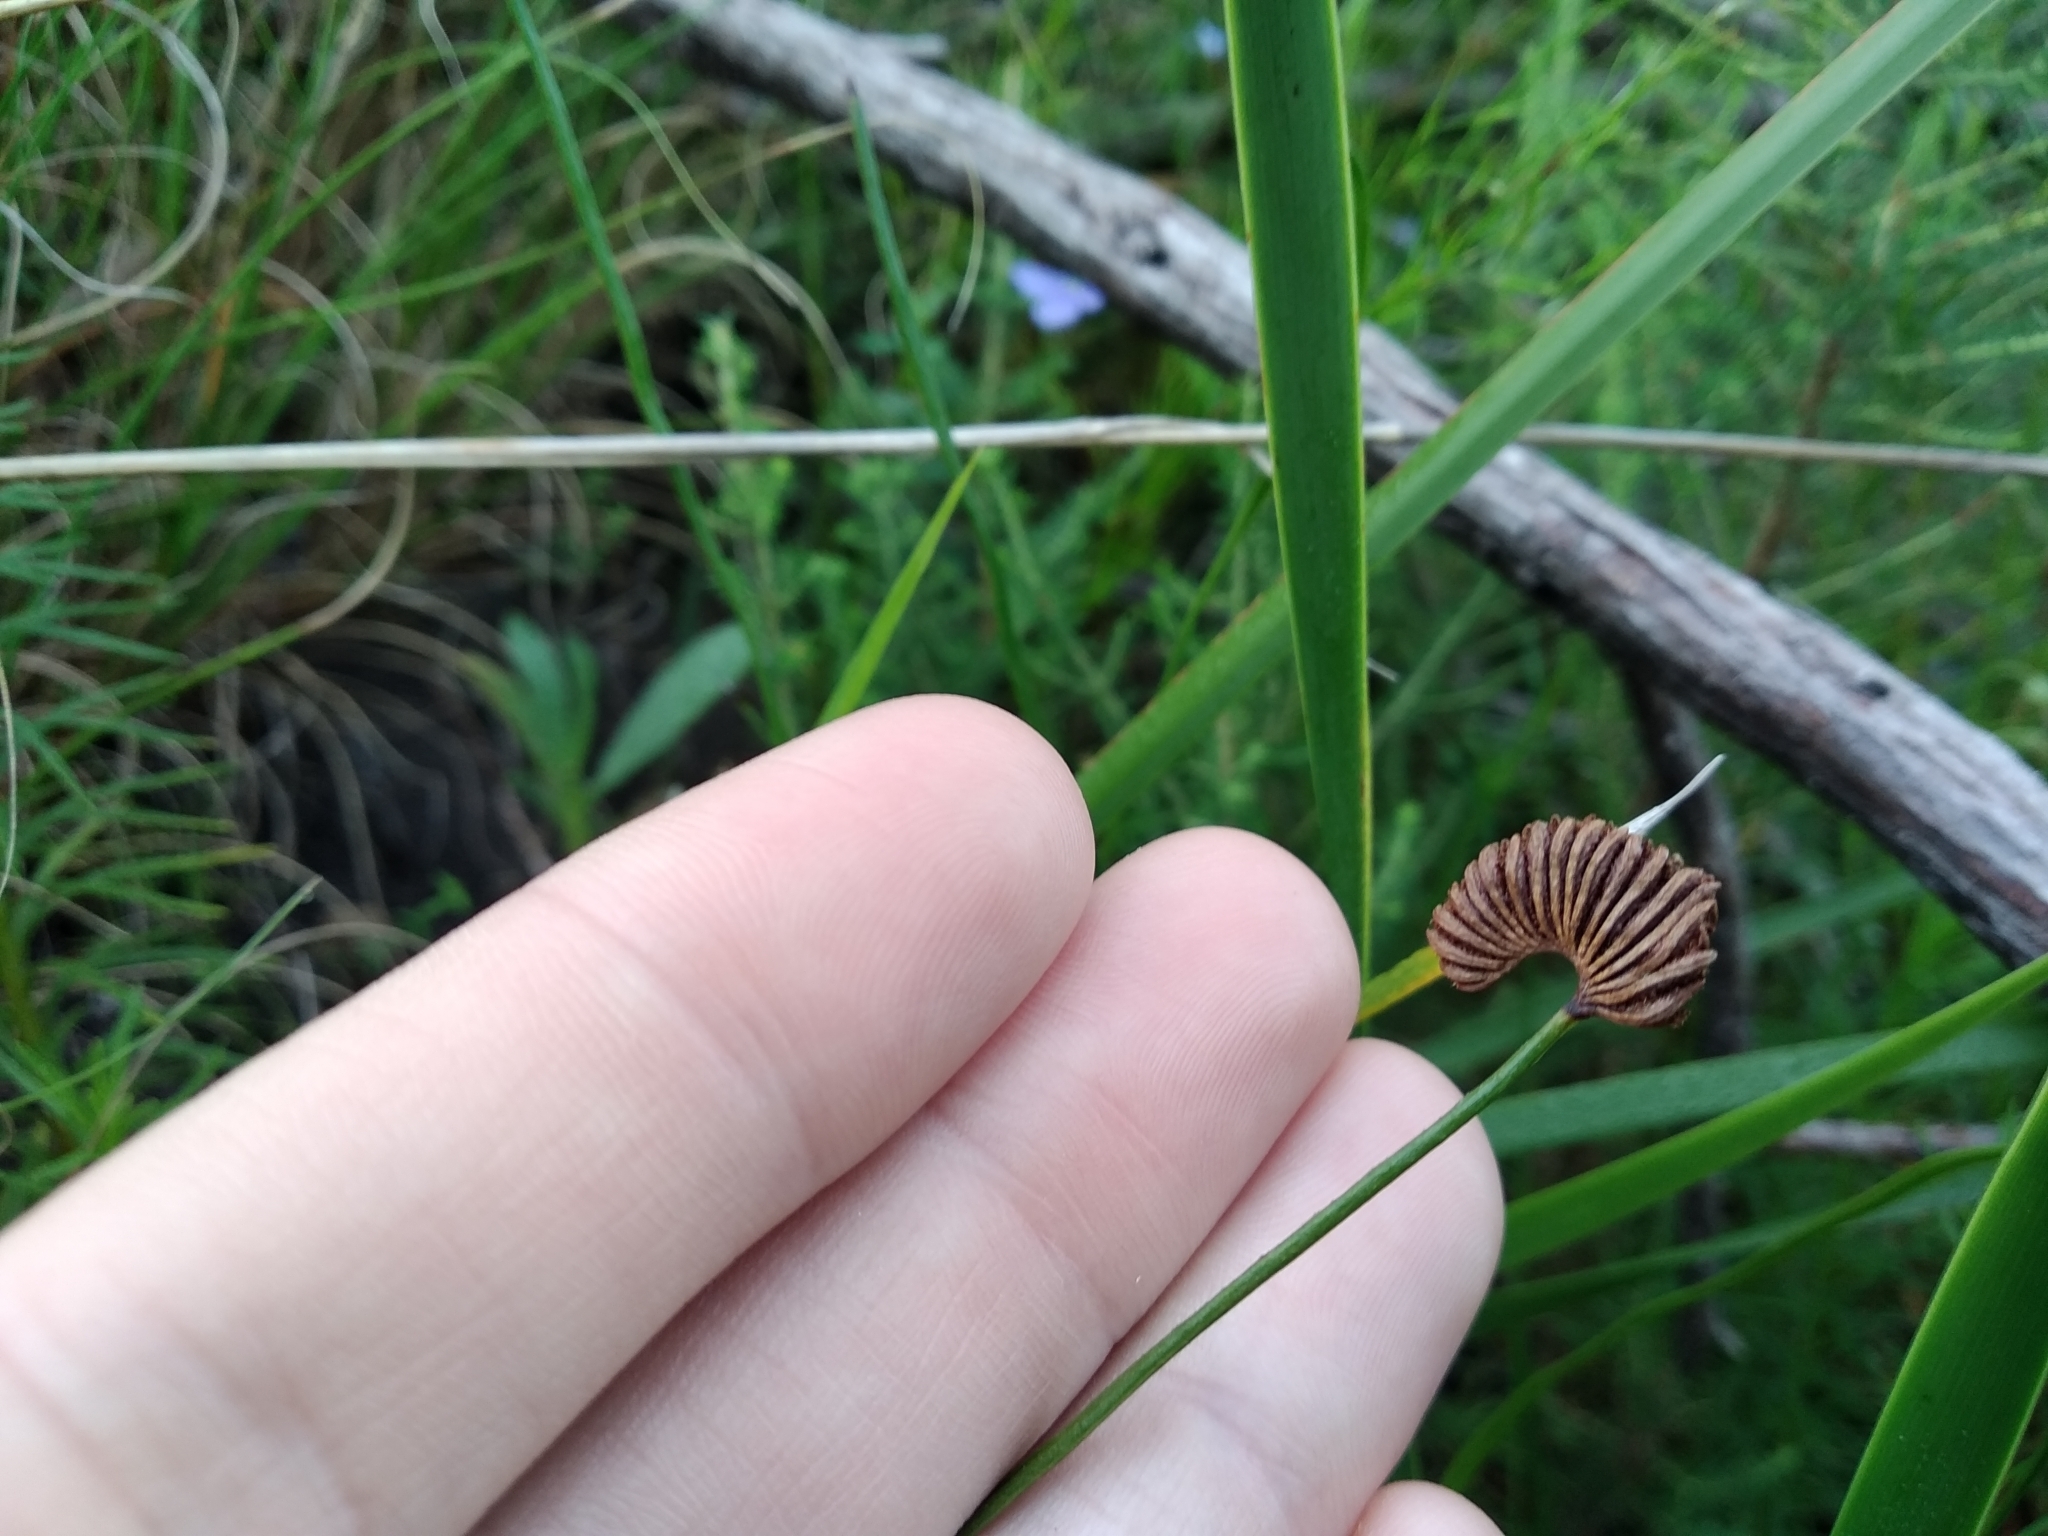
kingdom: Plantae
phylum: Tracheophyta
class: Polypodiopsida
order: Schizaeales
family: Schizaeaceae
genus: Schizaea
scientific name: Schizaea pectinata
